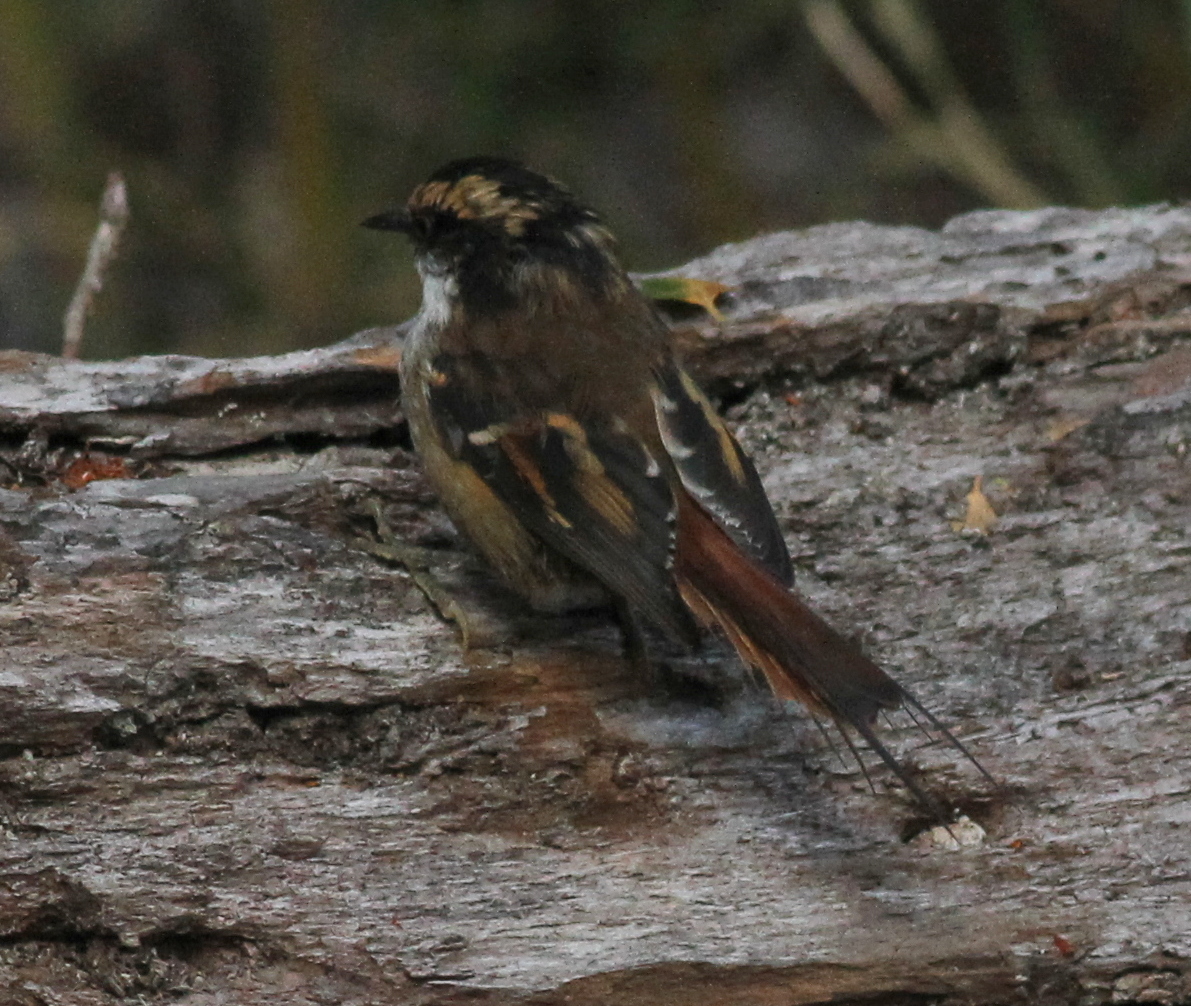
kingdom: Animalia
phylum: Chordata
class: Aves
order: Passeriformes
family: Furnariidae
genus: Aphrastura
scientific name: Aphrastura spinicauda
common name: Thorn-tailed rayadito
